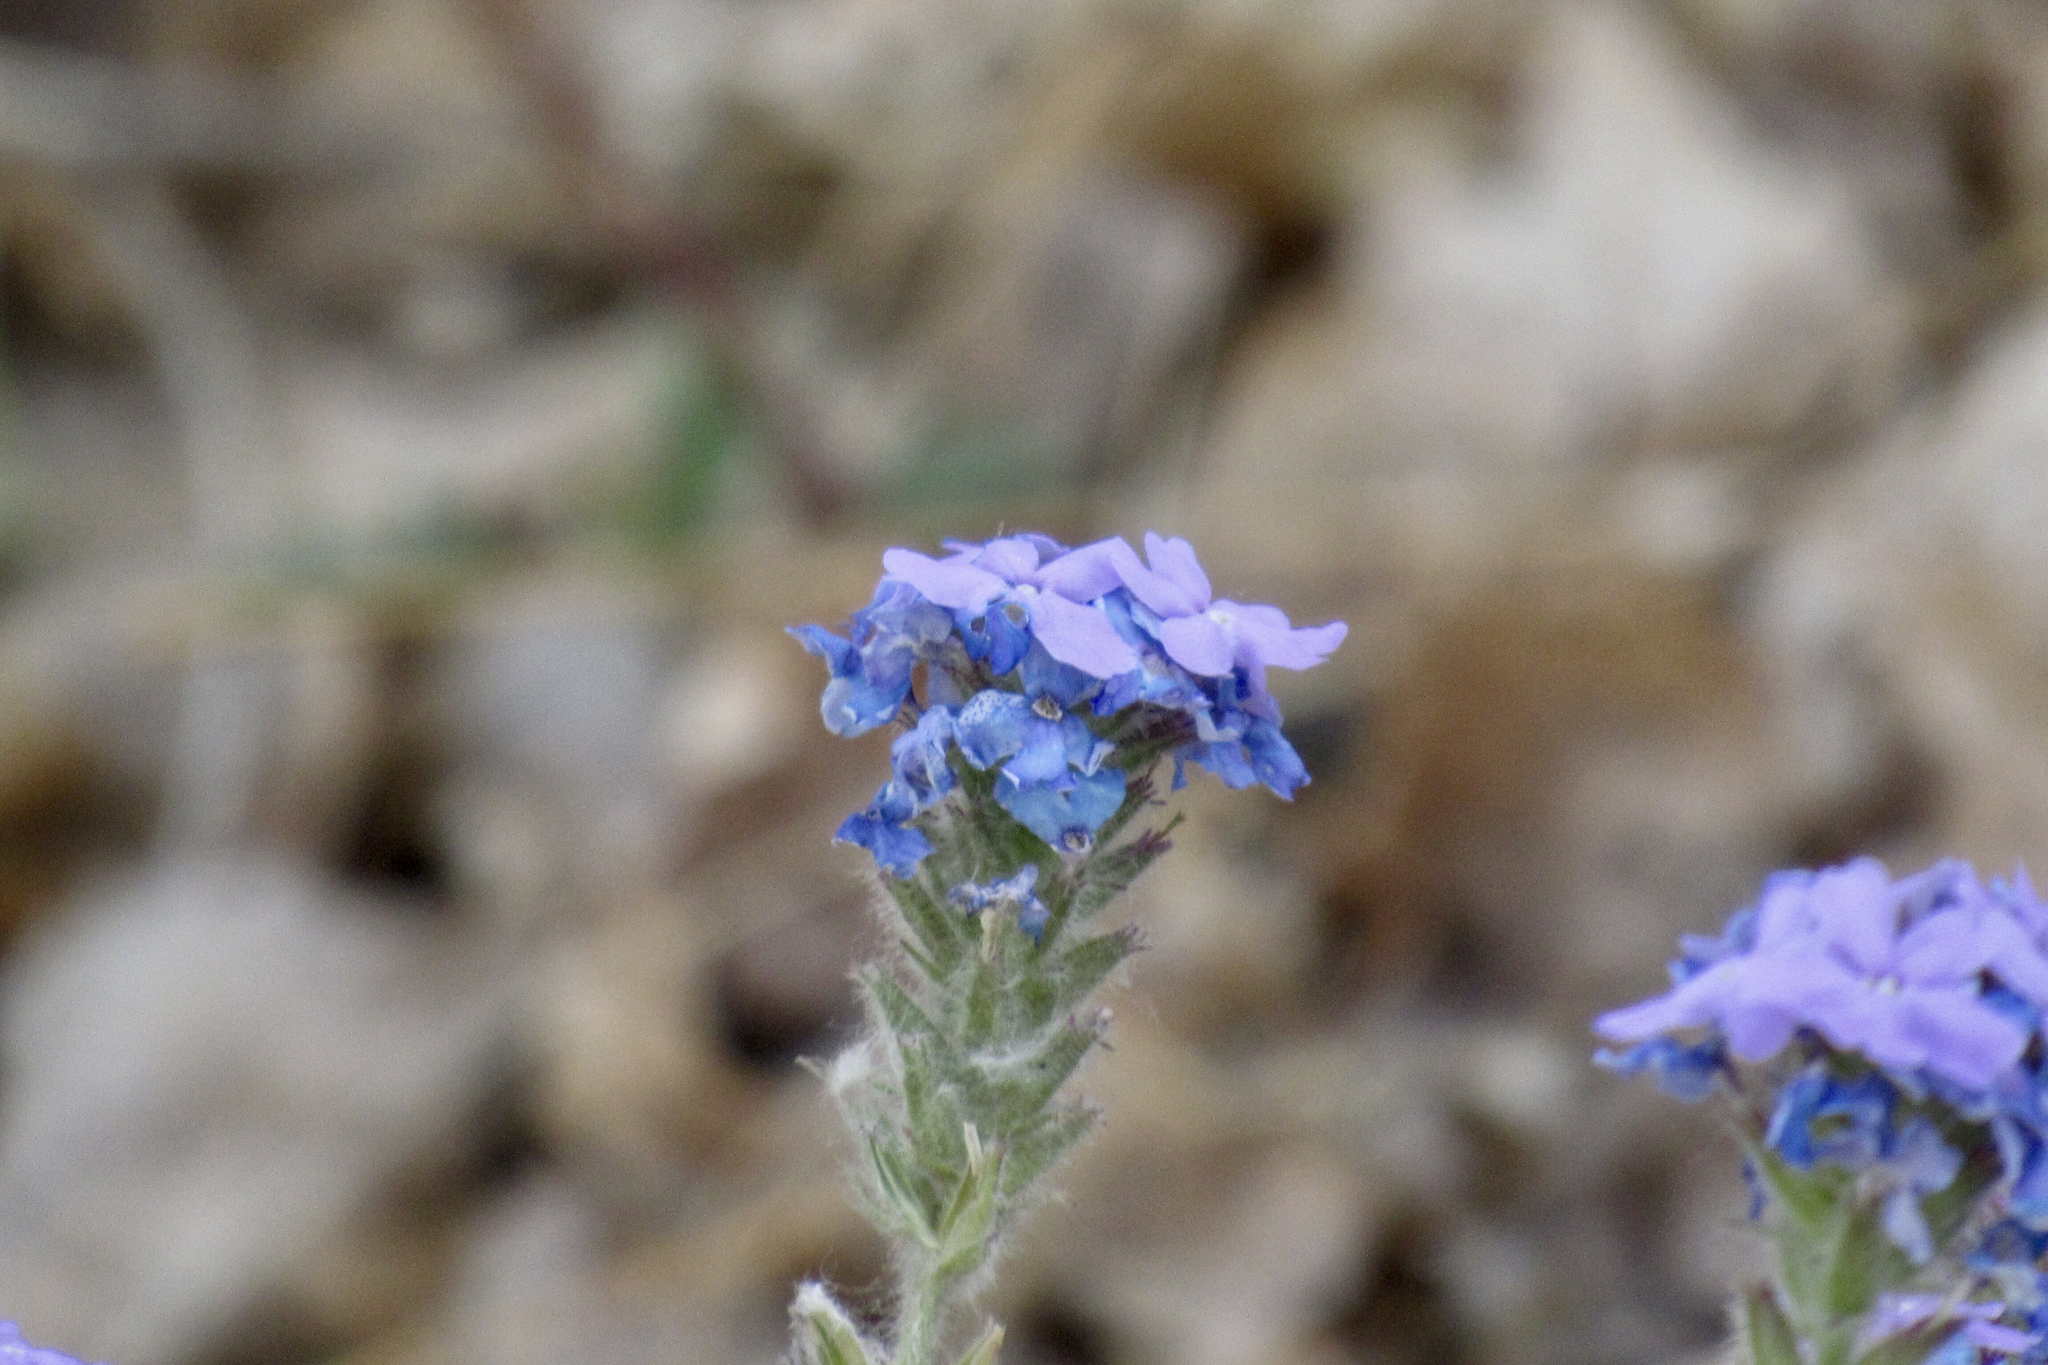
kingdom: Plantae
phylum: Tracheophyta
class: Magnoliopsida
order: Lamiales
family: Verbenaceae
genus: Verbena
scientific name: Verbena gooddingii
